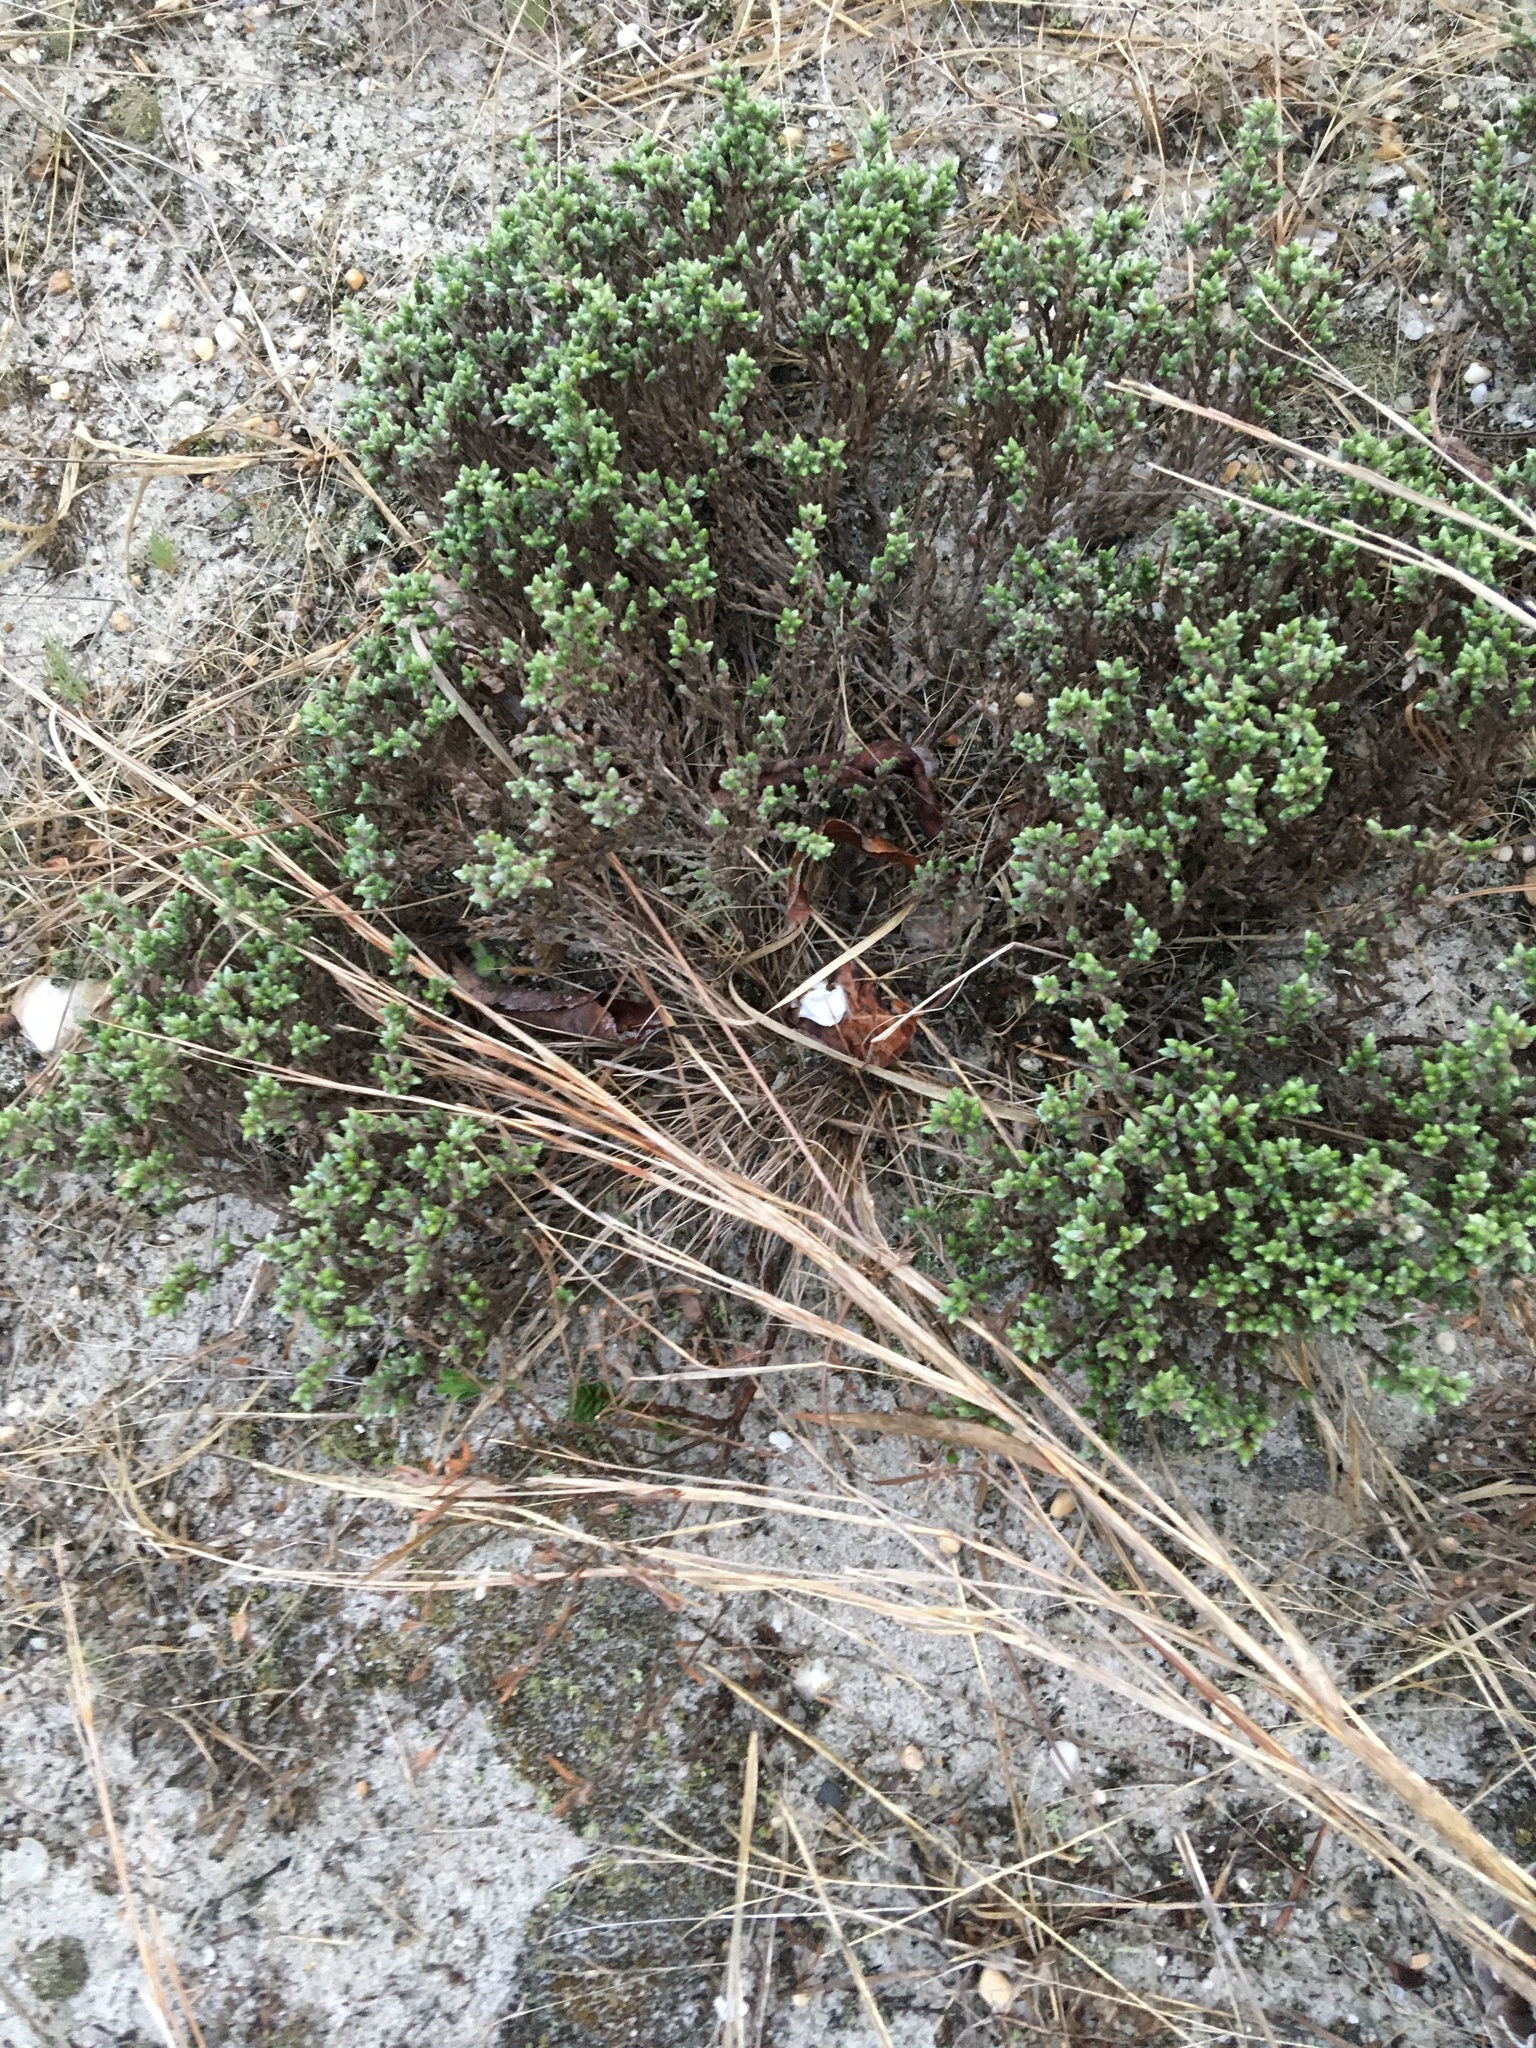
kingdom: Plantae
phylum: Tracheophyta
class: Magnoliopsida
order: Malvales
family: Cistaceae
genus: Hudsonia
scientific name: Hudsonia tomentosa
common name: Beach-heath
